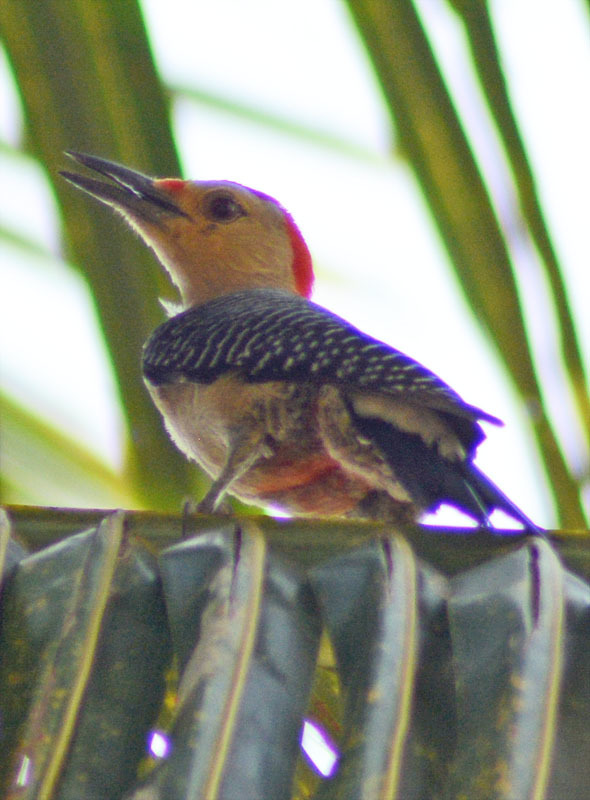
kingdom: Animalia
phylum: Chordata
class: Aves
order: Piciformes
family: Picidae
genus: Melanerpes
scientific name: Melanerpes aurifrons
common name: Golden-fronted woodpecker
